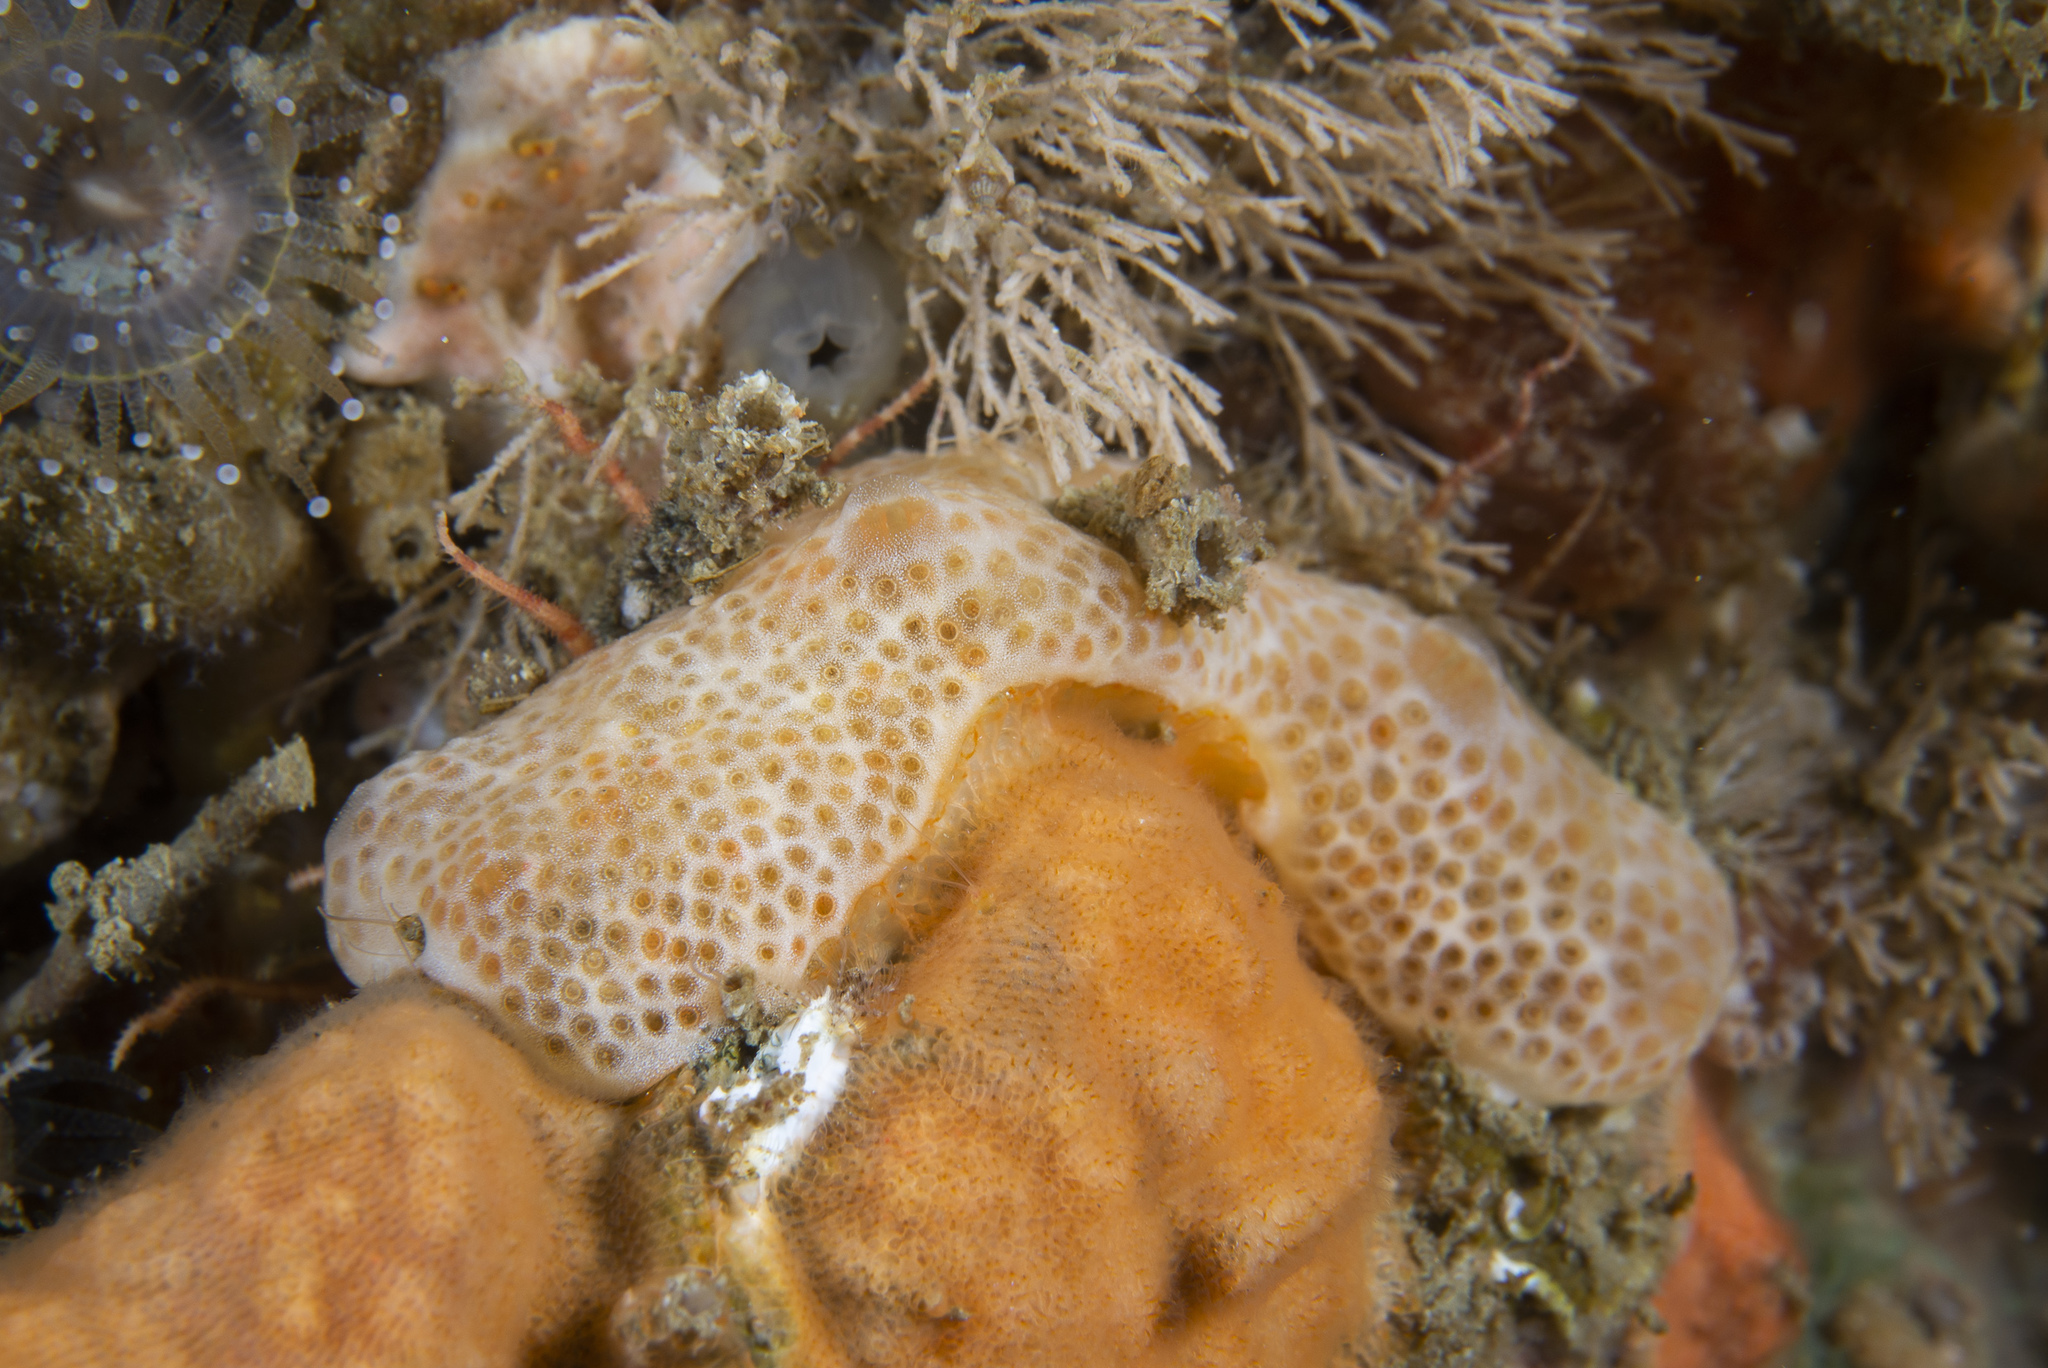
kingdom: Animalia
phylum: Chordata
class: Ascidiacea
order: Aplousobranchia
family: Didemnidae
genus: Lissoclinum
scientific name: Lissoclinum weigelei
